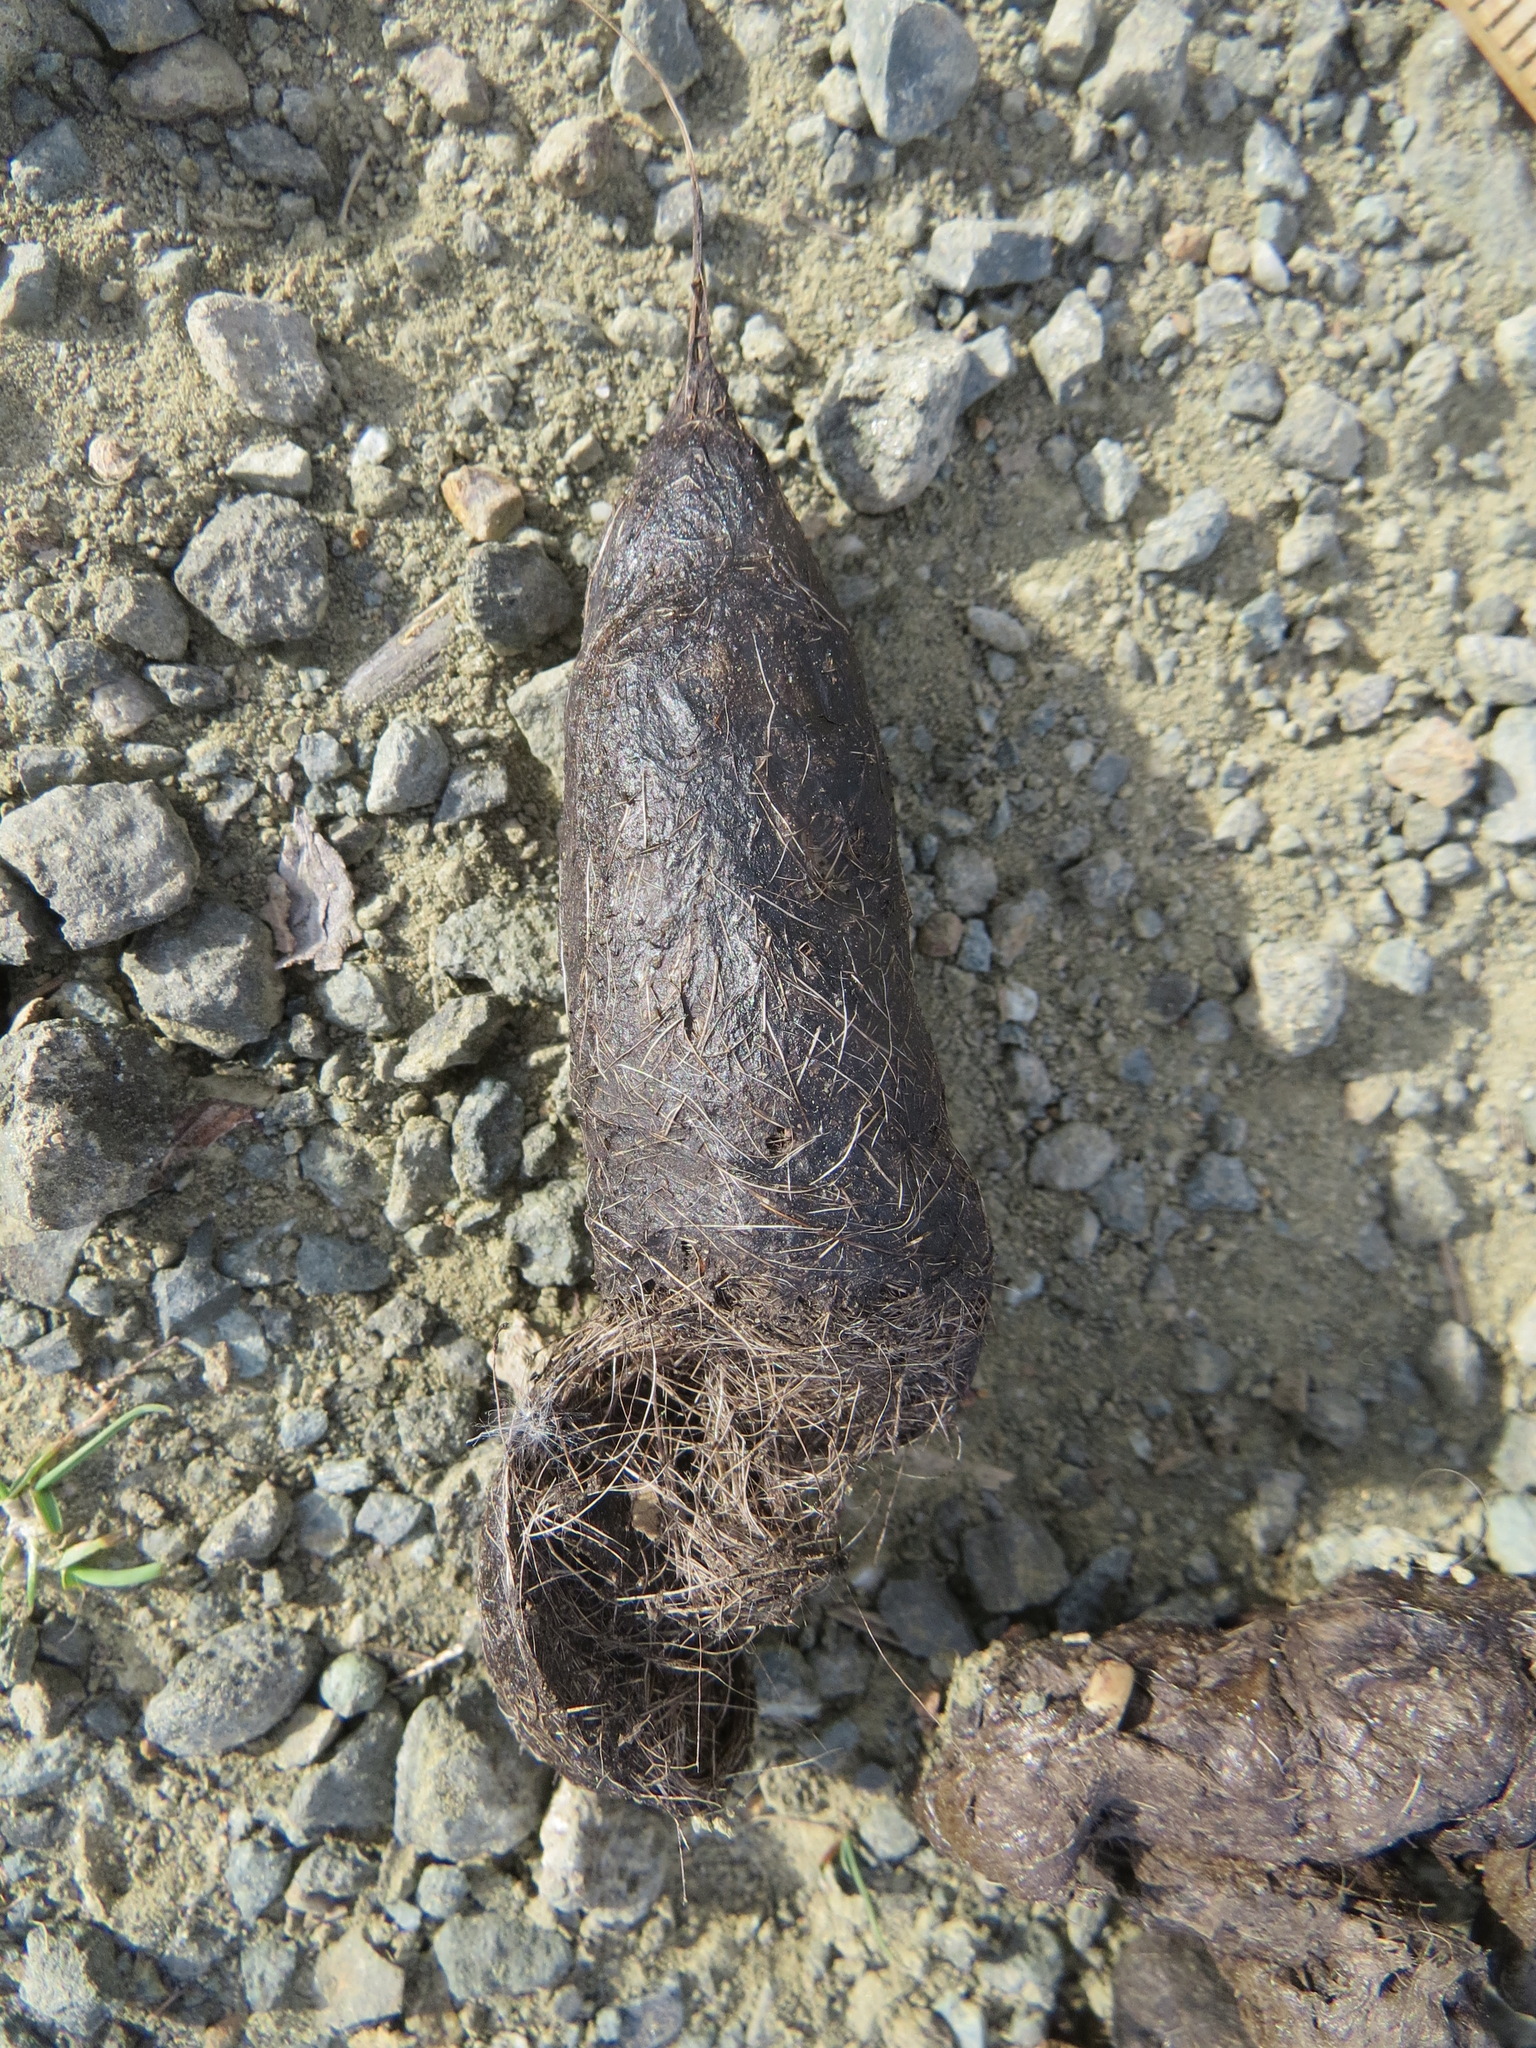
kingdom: Animalia
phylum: Chordata
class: Mammalia
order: Carnivora
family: Canidae
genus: Canis
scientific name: Canis latrans
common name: Coyote
